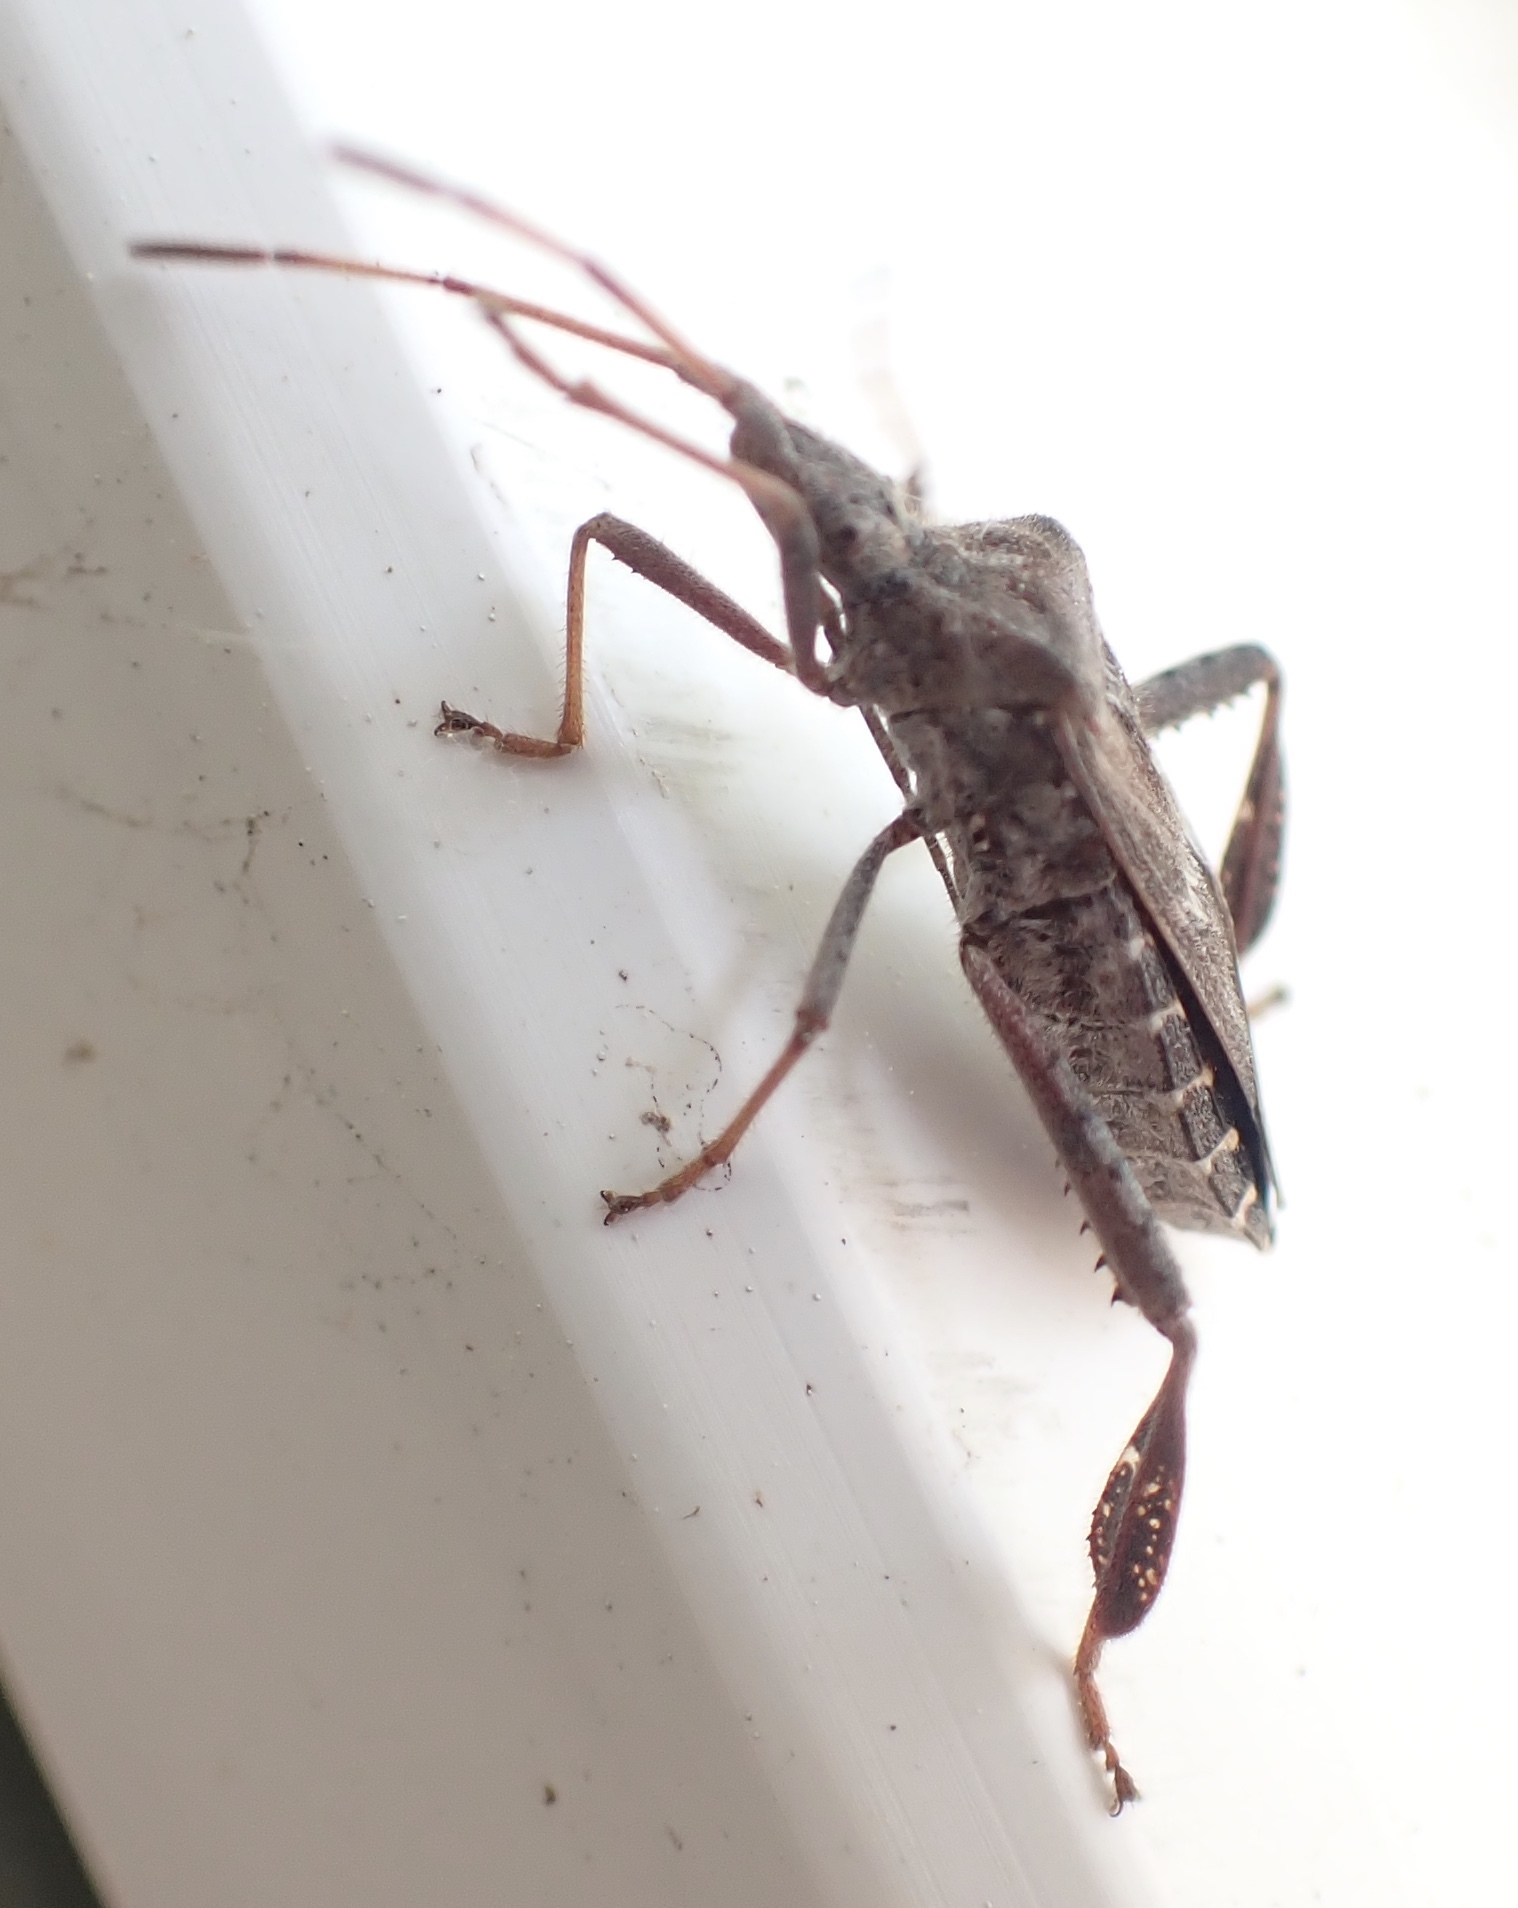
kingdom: Animalia
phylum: Arthropoda
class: Insecta
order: Hemiptera
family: Coreidae
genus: Leptoglossus
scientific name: Leptoglossus corculus
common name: Southern pine seed bug
